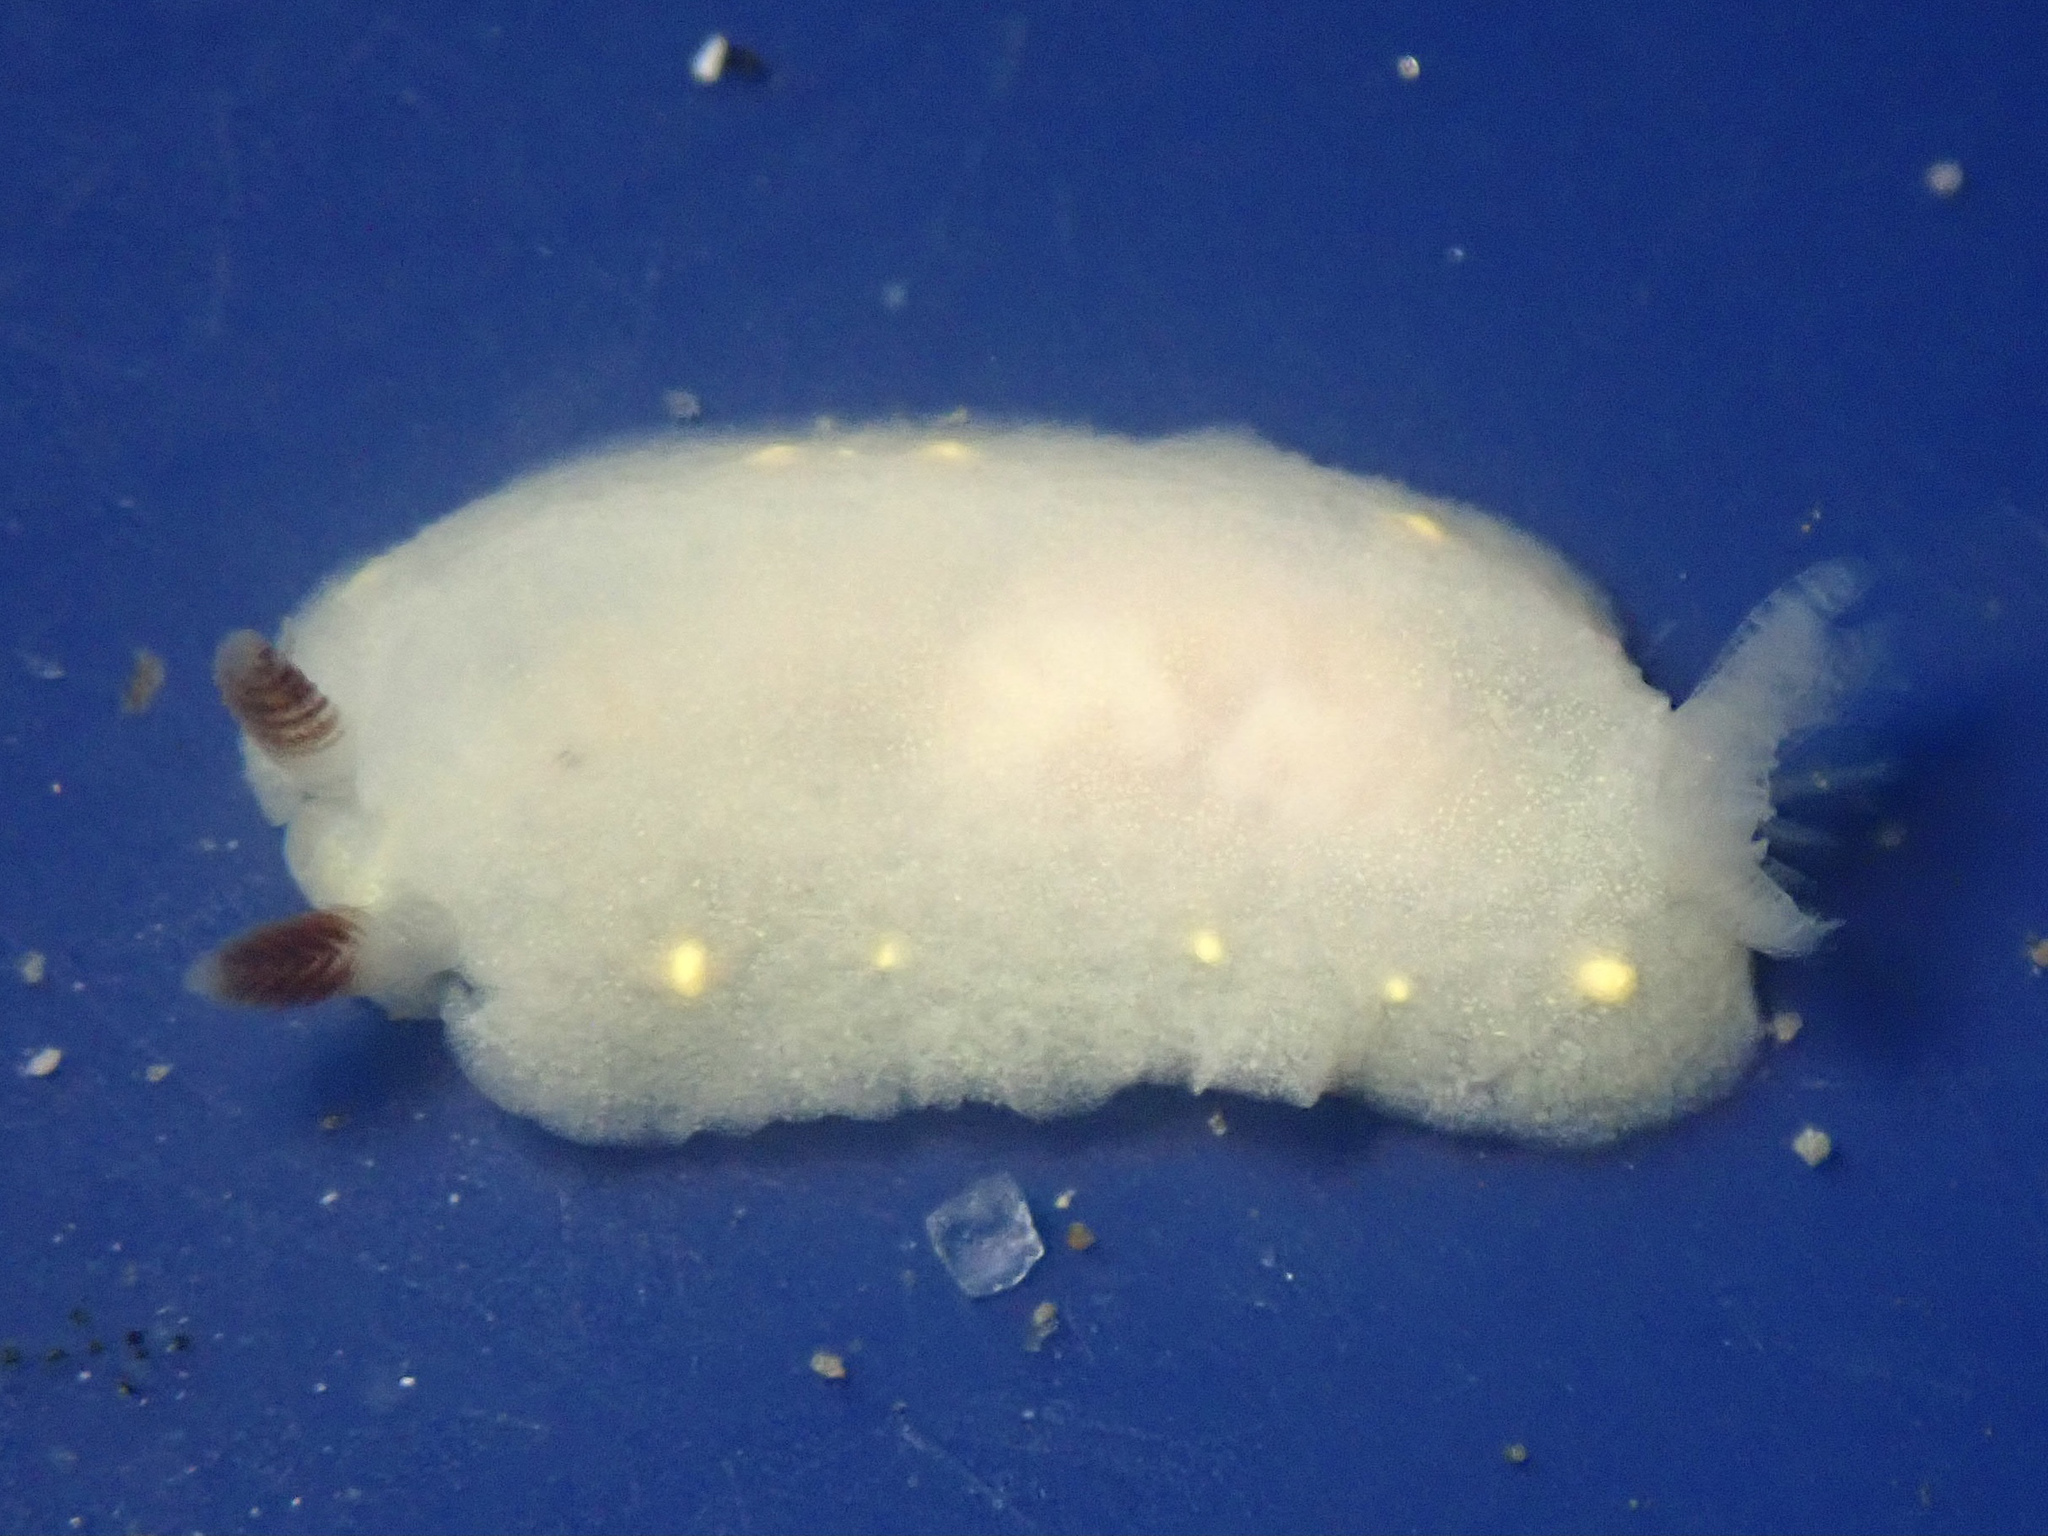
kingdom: Animalia
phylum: Mollusca
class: Gastropoda
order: Nudibranchia
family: Cadlinidae
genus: Cadlina
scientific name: Cadlina flavomaculata
